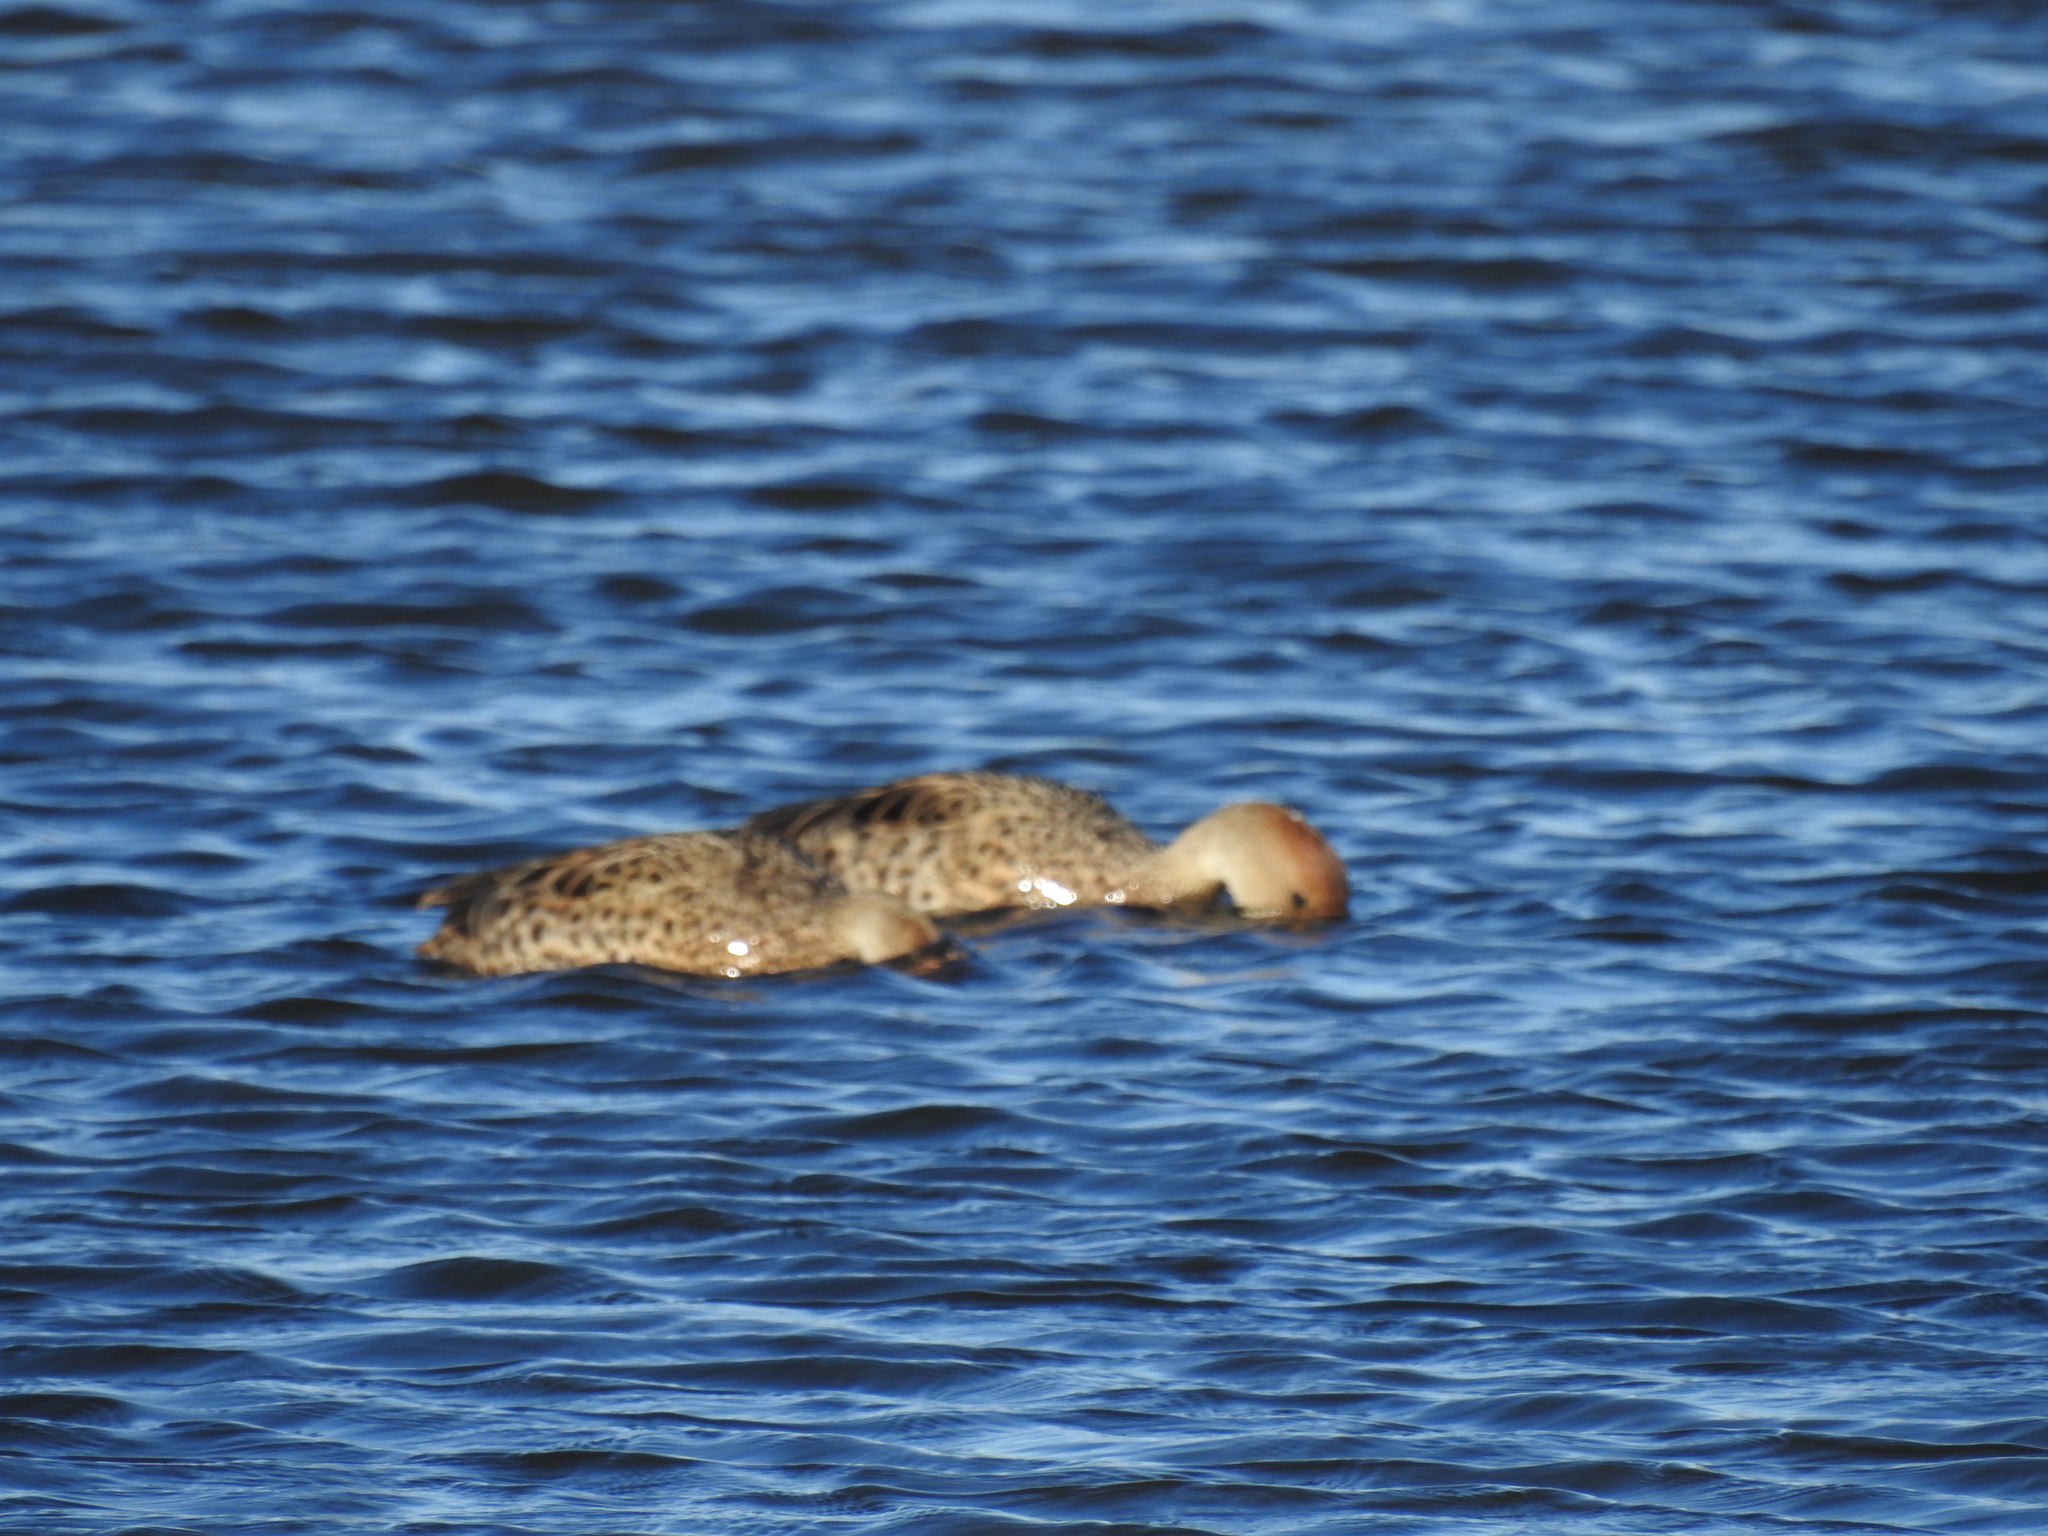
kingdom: Animalia
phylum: Chordata
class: Aves
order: Anseriformes
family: Anatidae
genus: Anas
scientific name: Anas georgica
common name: Yellow-billed pintail
